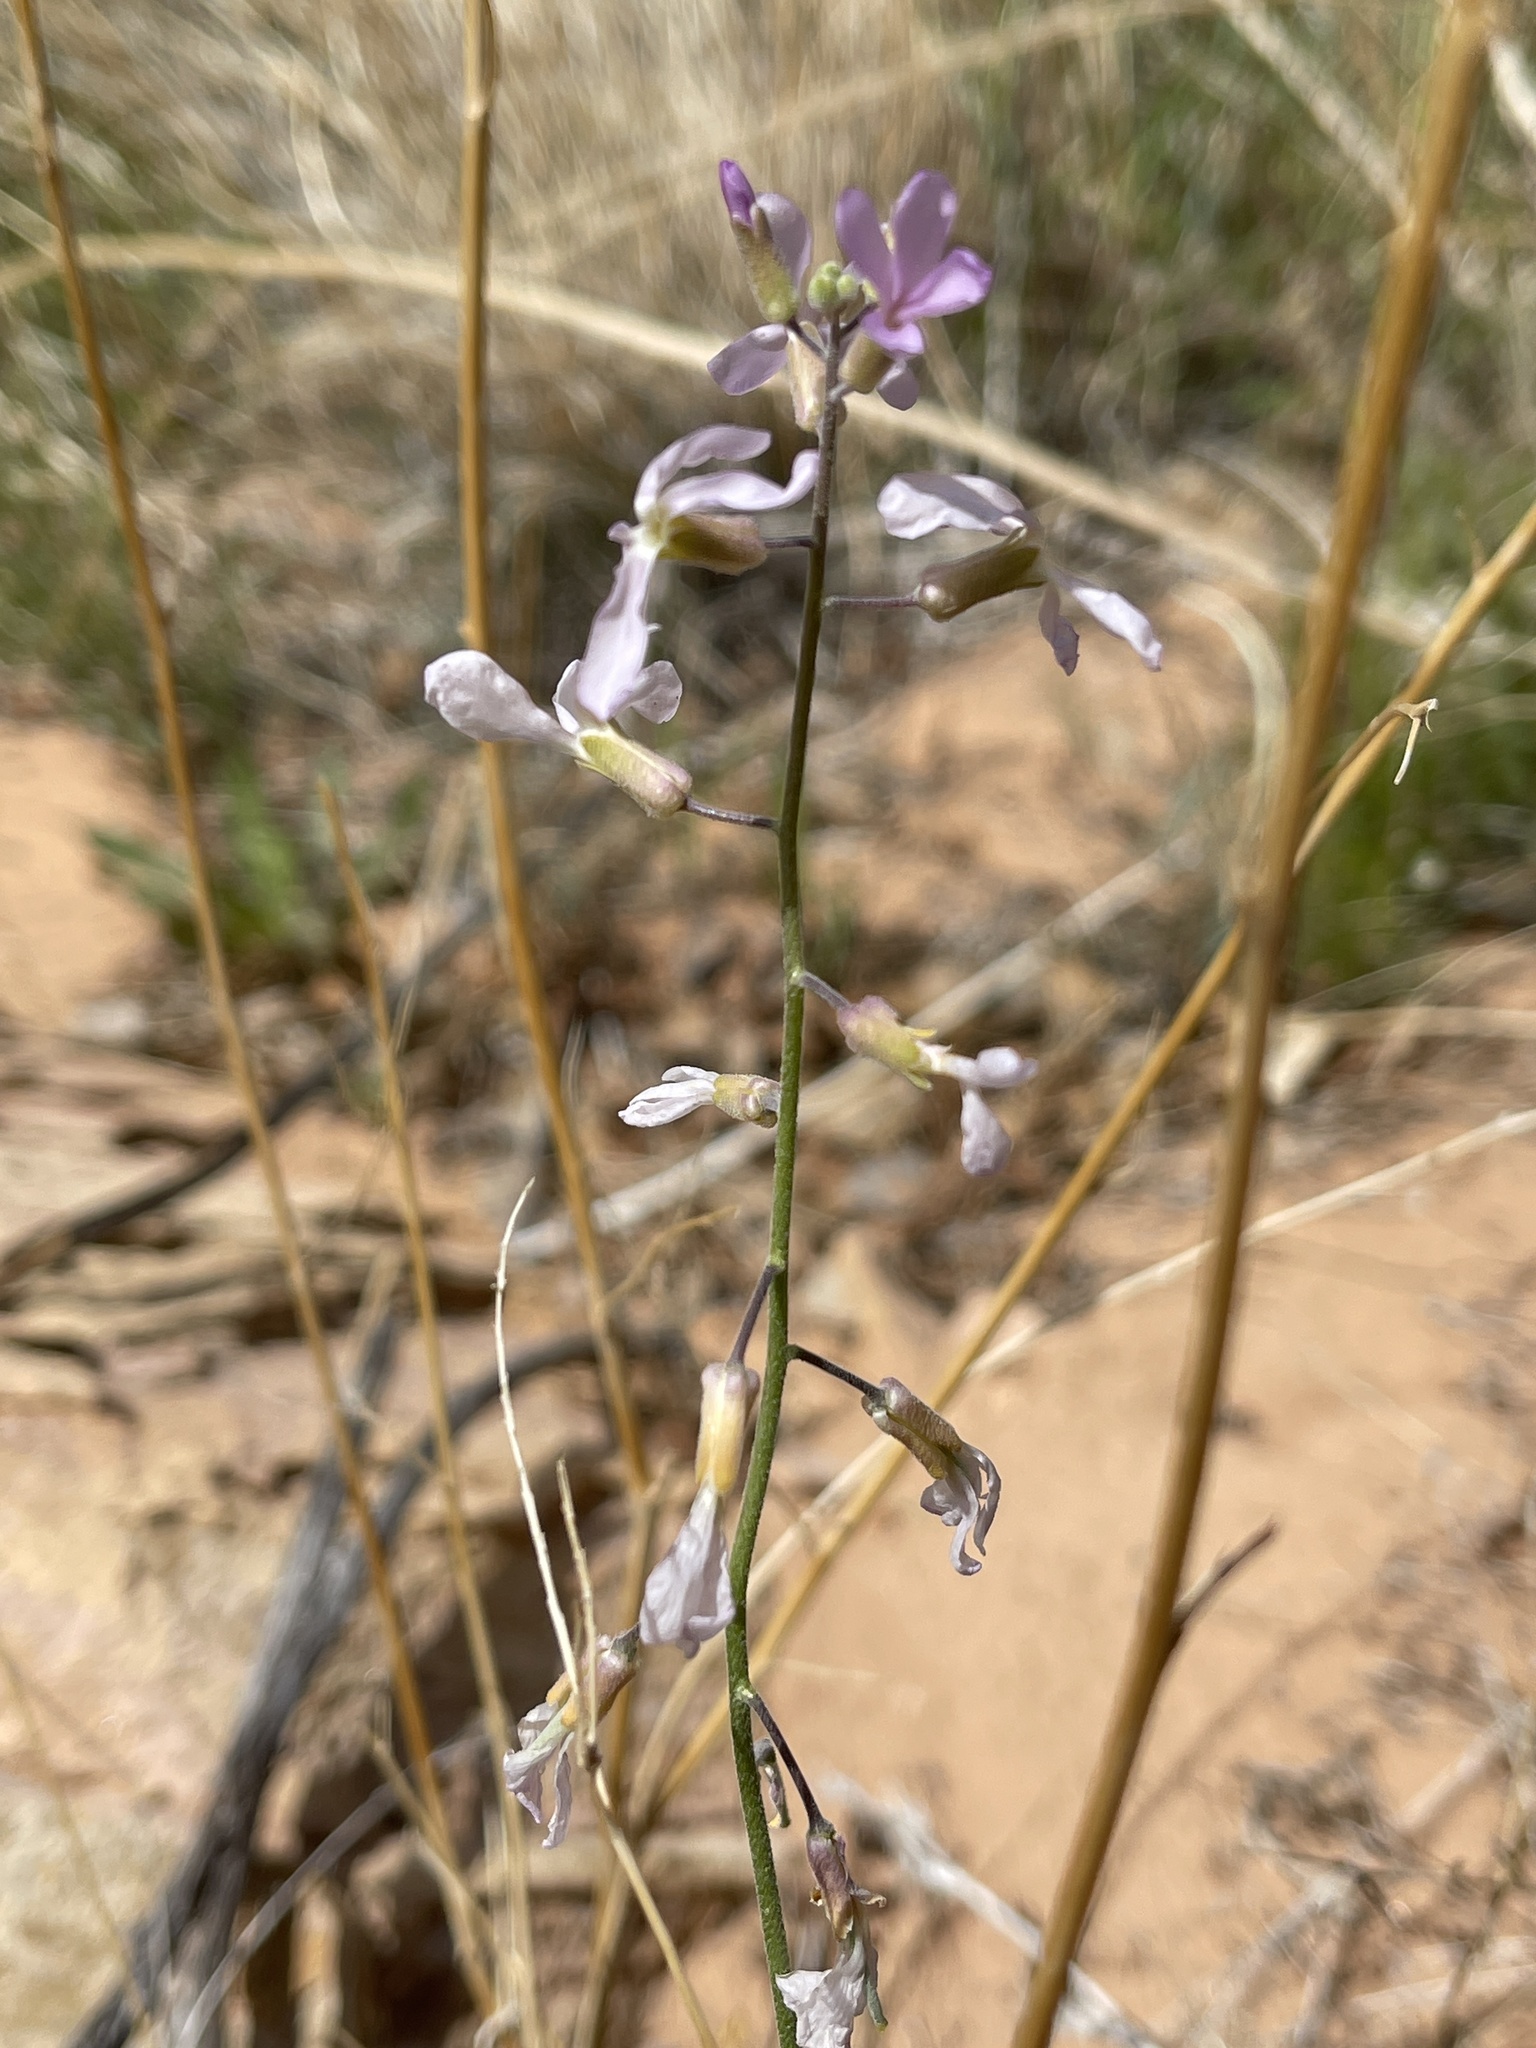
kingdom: Plantae
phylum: Tracheophyta
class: Magnoliopsida
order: Brassicales
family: Brassicaceae
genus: Boechera
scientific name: Boechera formosa
